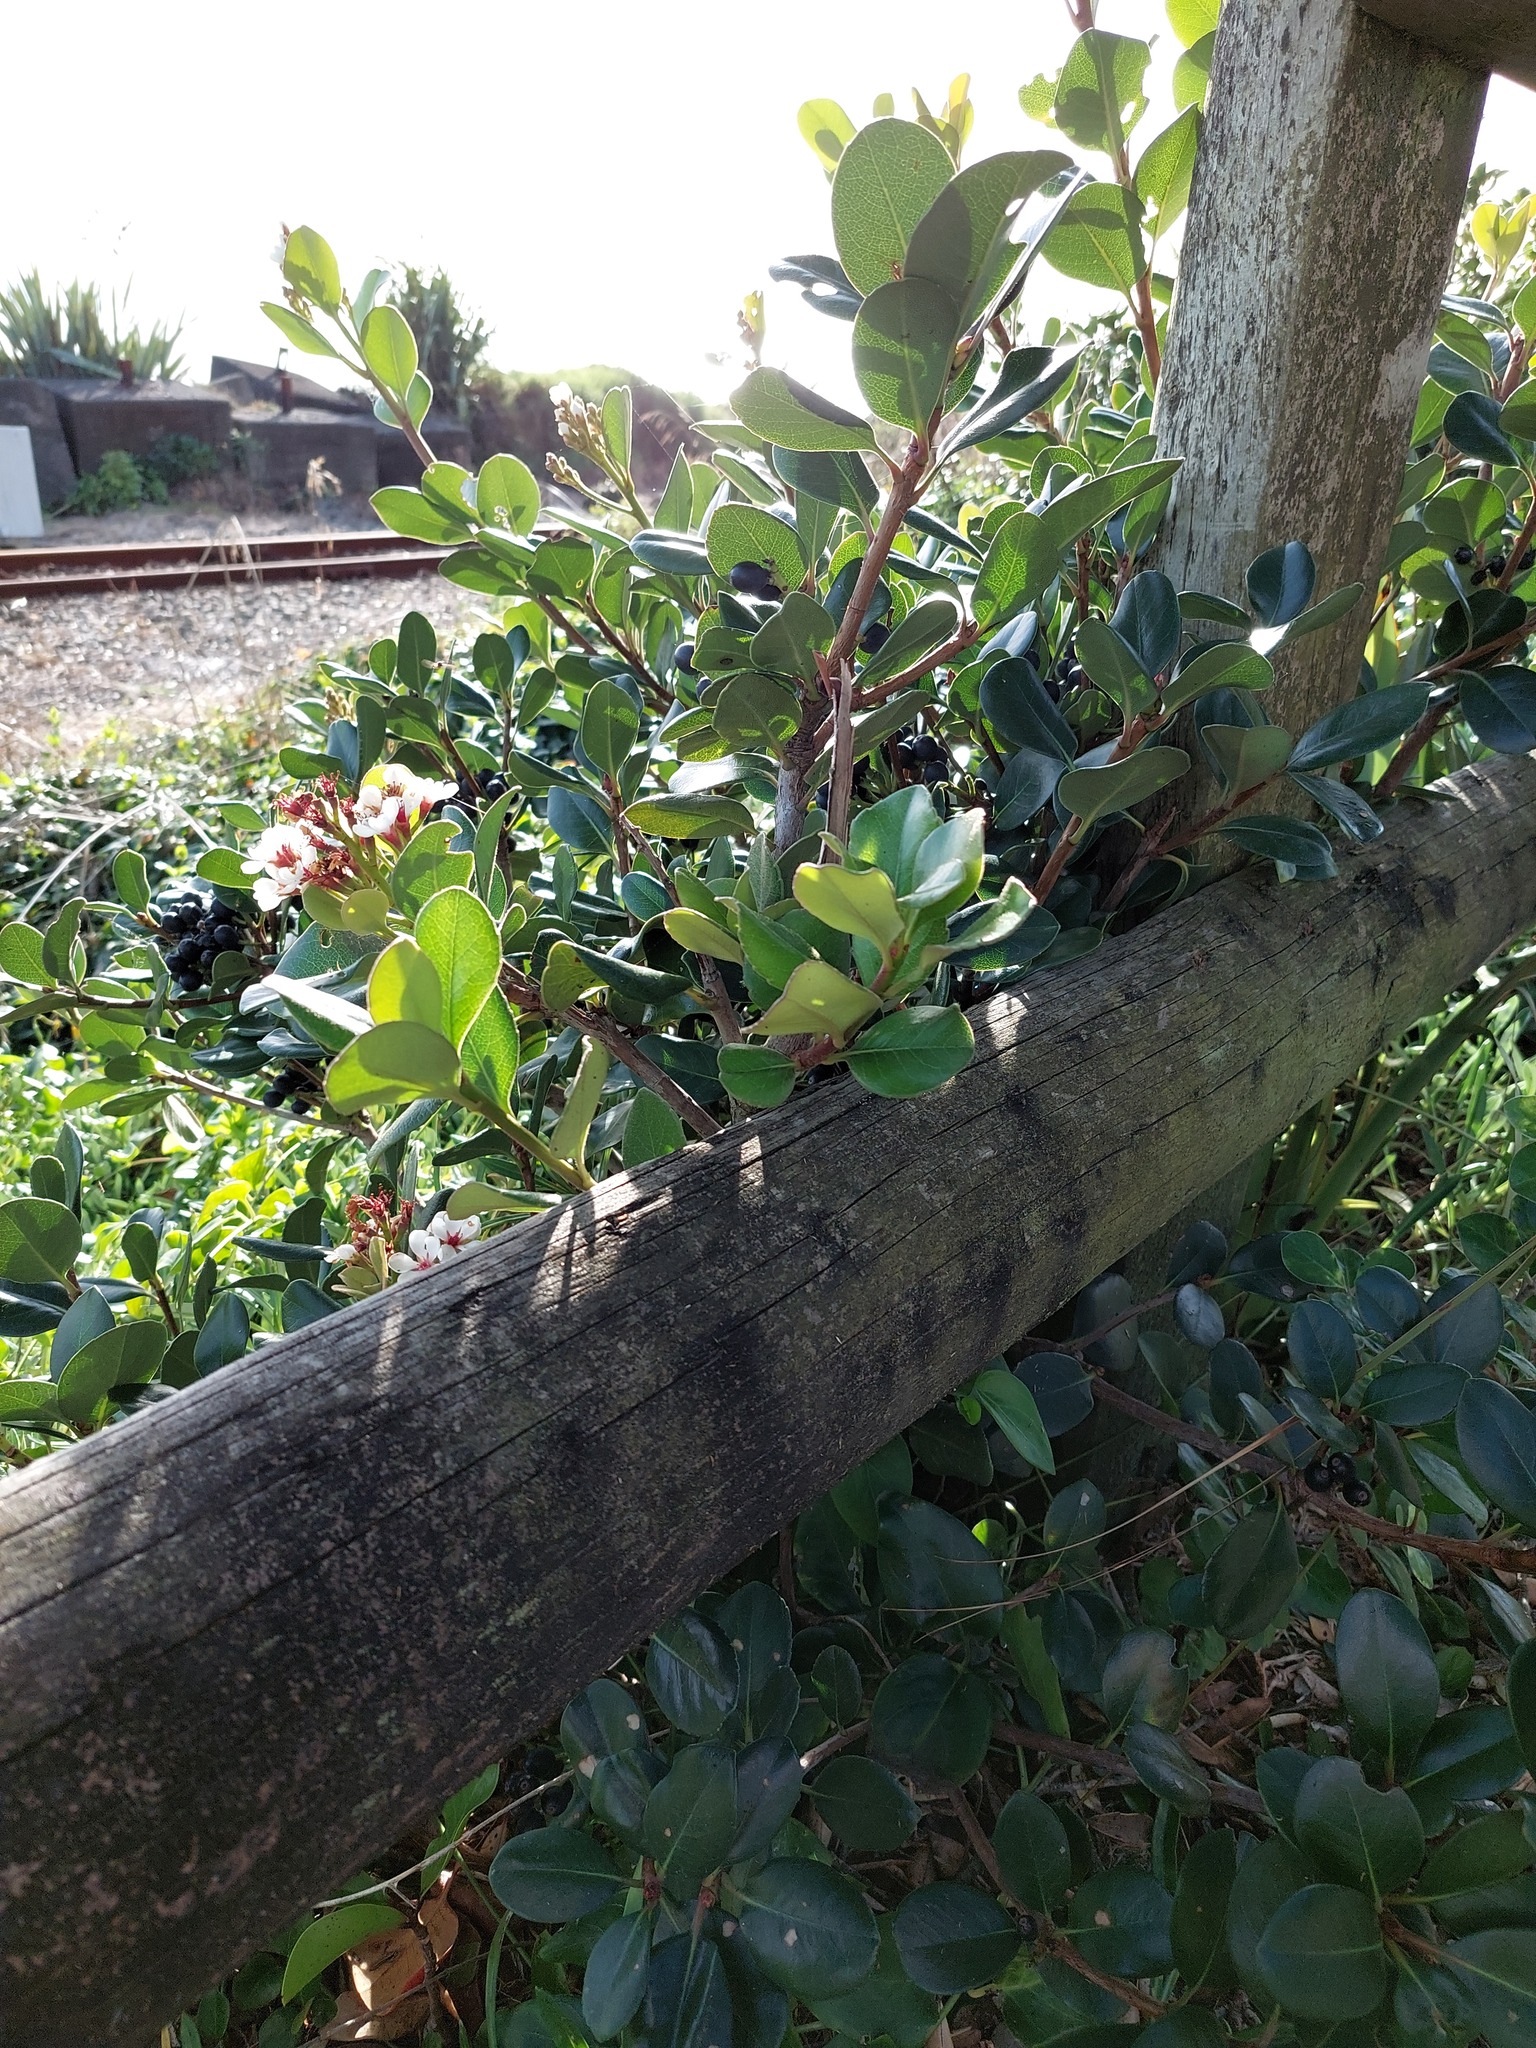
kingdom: Plantae
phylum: Tracheophyta
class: Magnoliopsida
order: Rosales
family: Rosaceae
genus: Rhaphiolepis
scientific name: Rhaphiolepis umbellata
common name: Yedda-hawthorn
